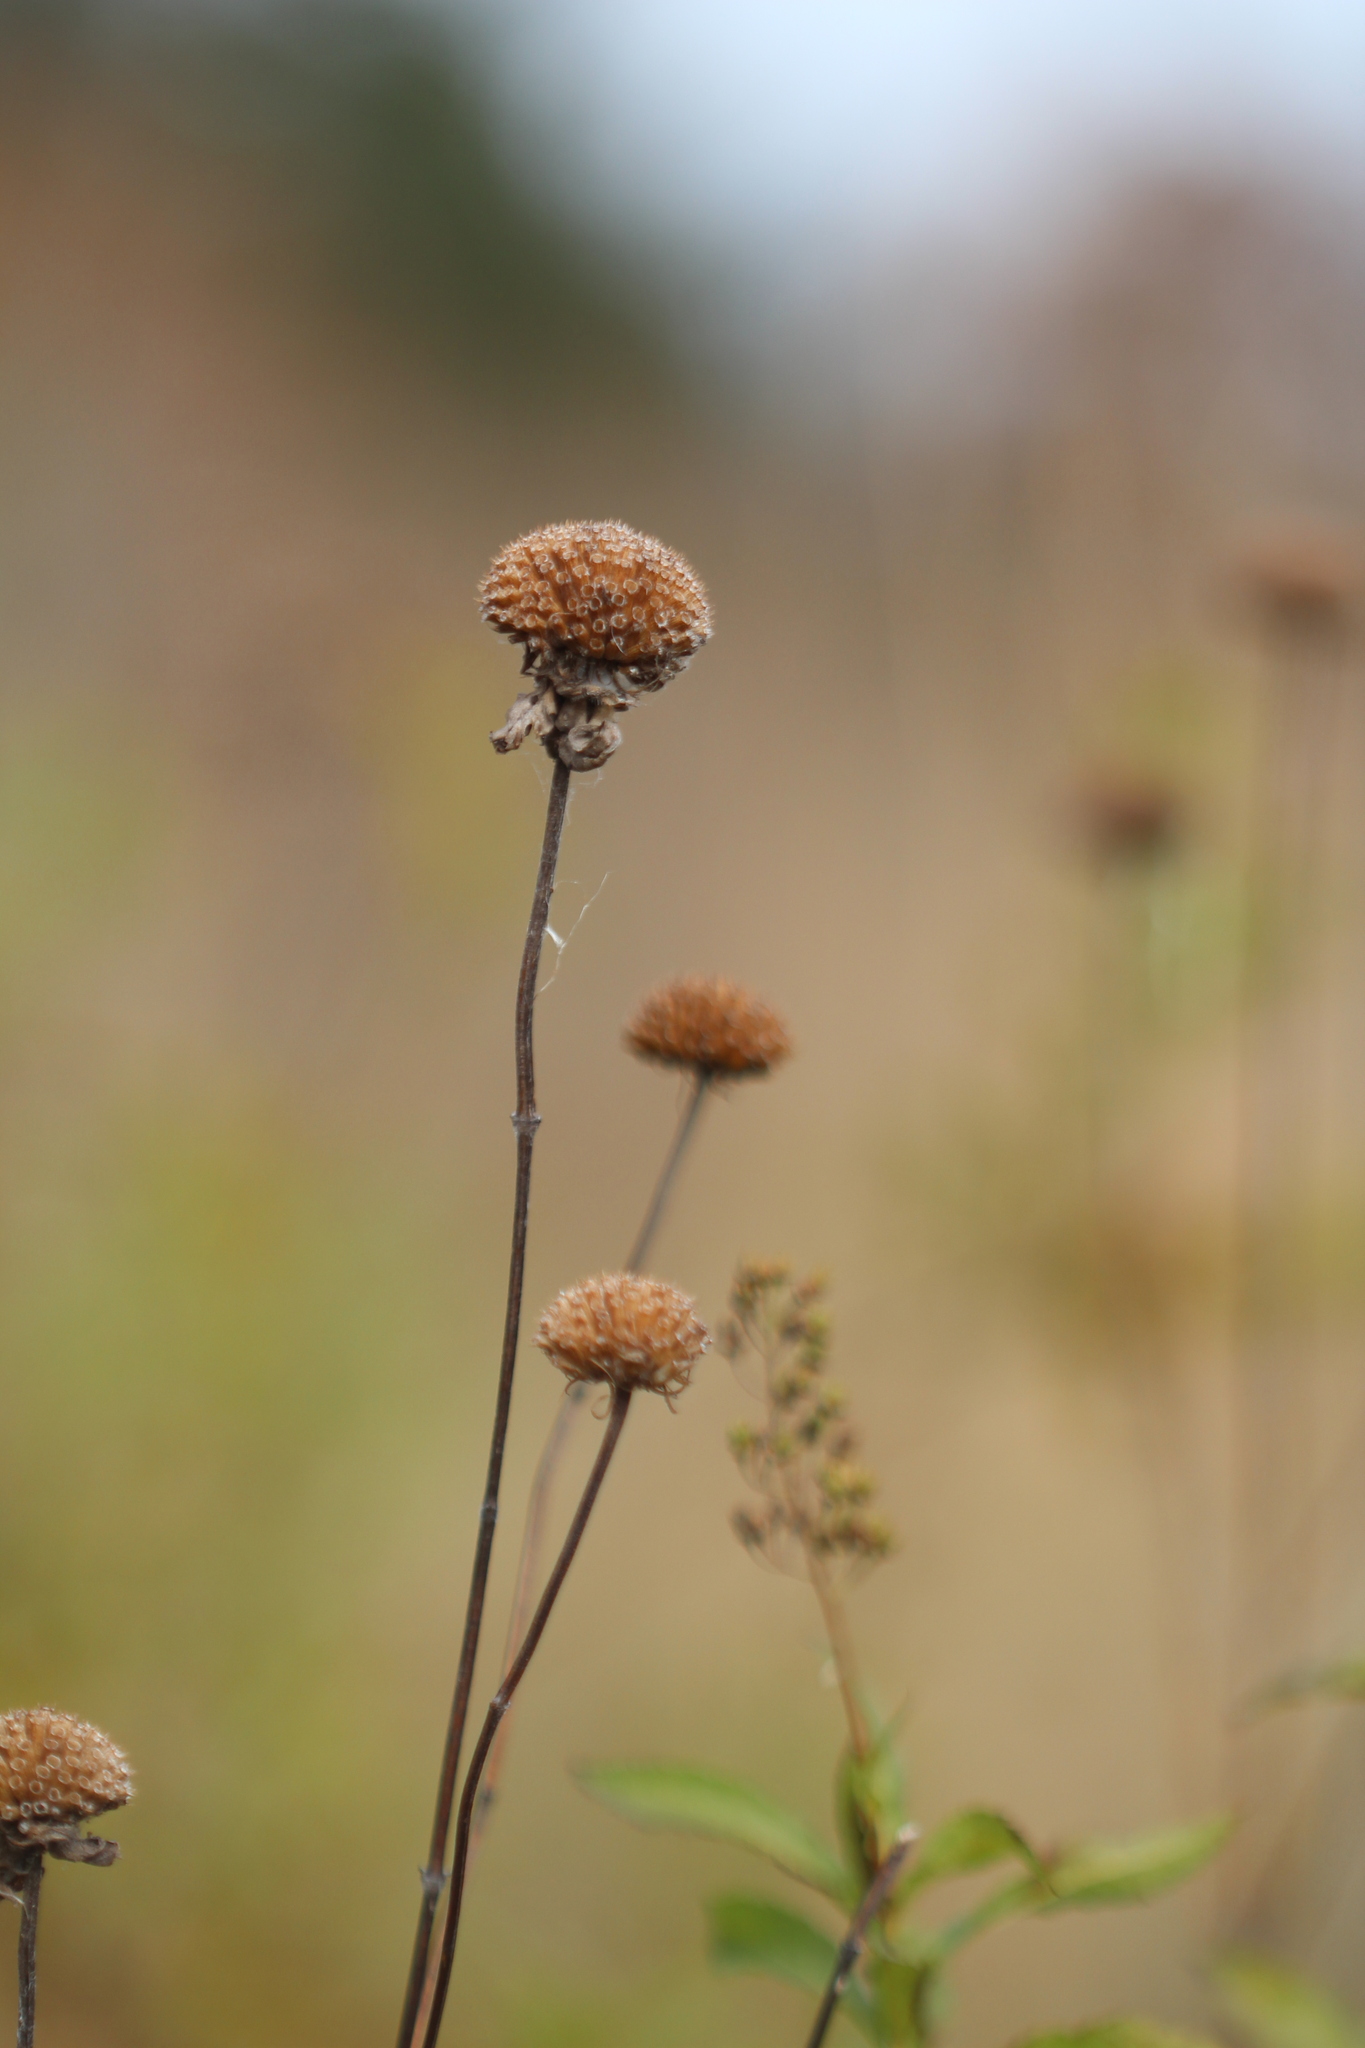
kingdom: Plantae
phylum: Tracheophyta
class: Magnoliopsida
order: Lamiales
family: Lamiaceae
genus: Monarda
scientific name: Monarda fistulosa
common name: Purple beebalm
